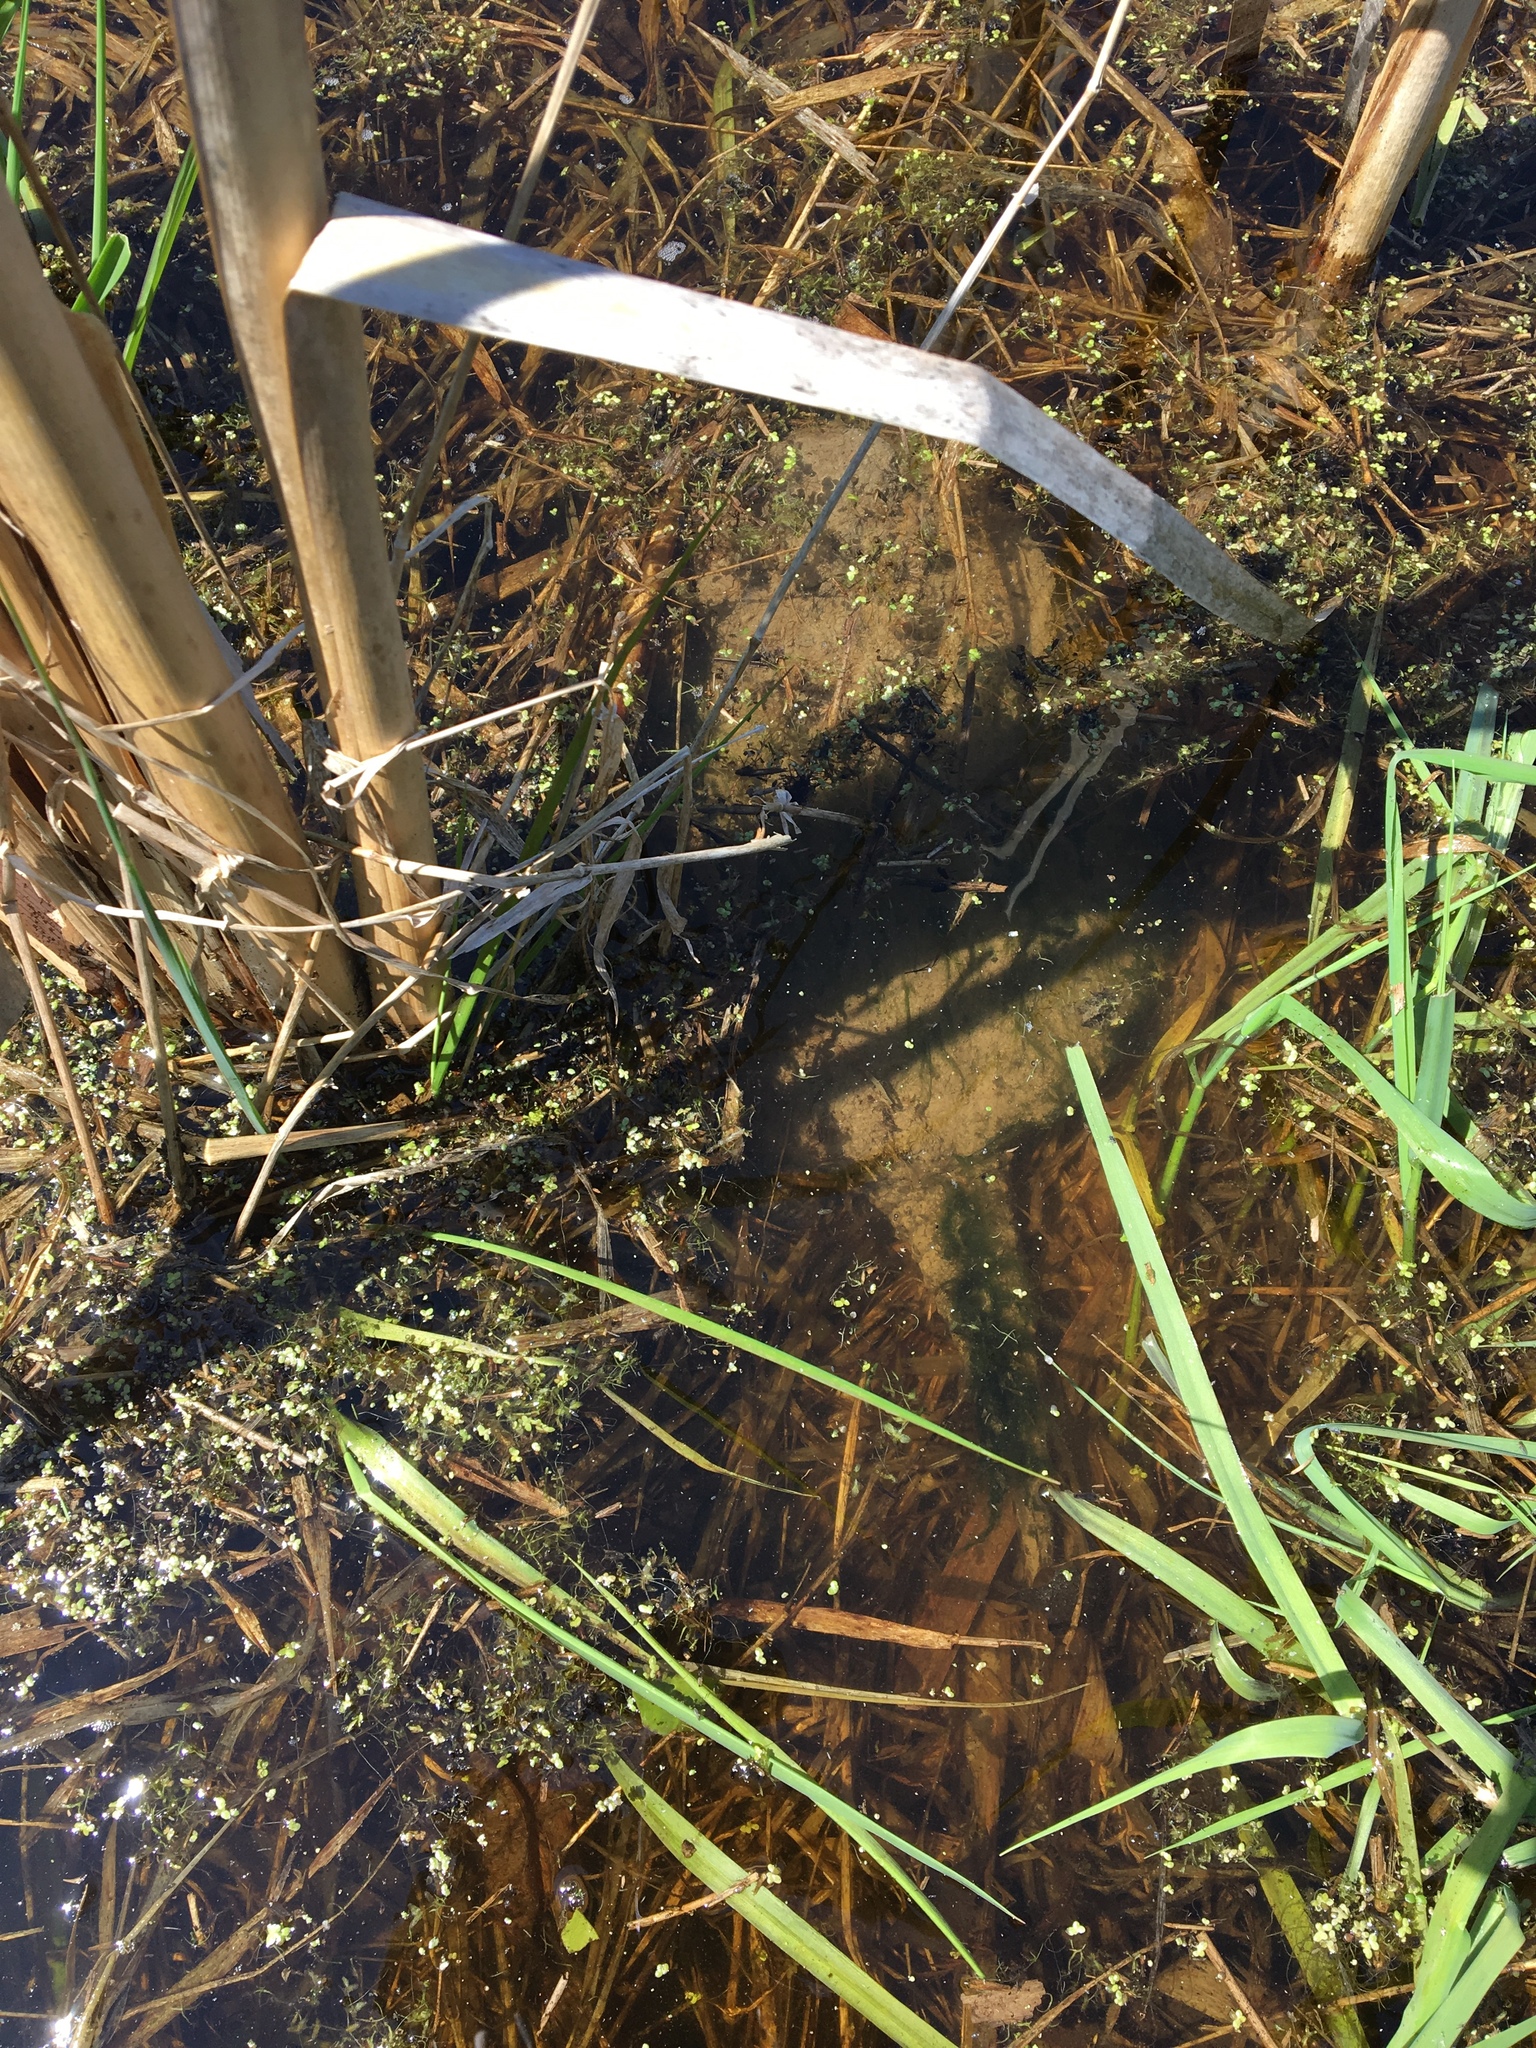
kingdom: Animalia
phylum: Chordata
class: Testudines
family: Chelydridae
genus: Chelydra
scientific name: Chelydra serpentina
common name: Common snapping turtle
